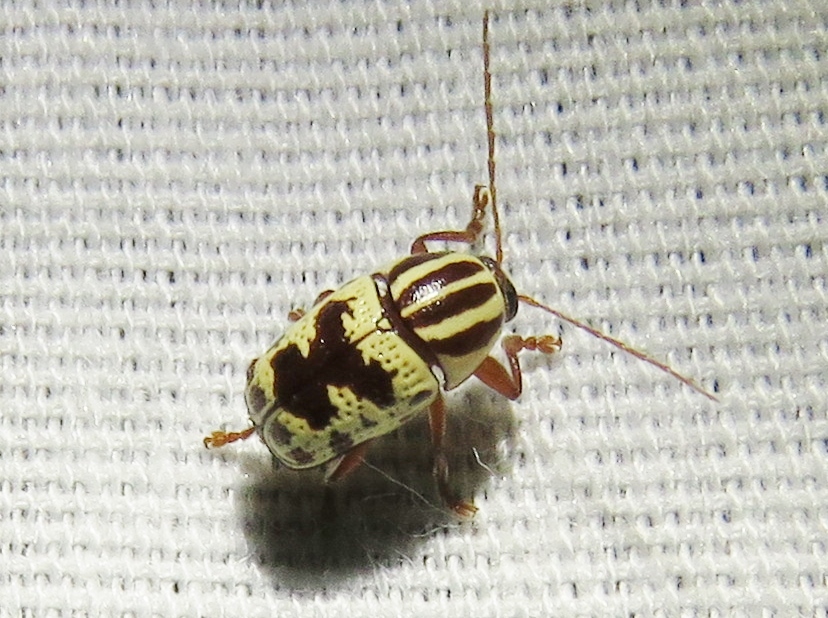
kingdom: Animalia
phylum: Arthropoda
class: Insecta
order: Coleoptera
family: Chrysomelidae
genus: Cryptocephalus
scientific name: Cryptocephalus leucomelas
